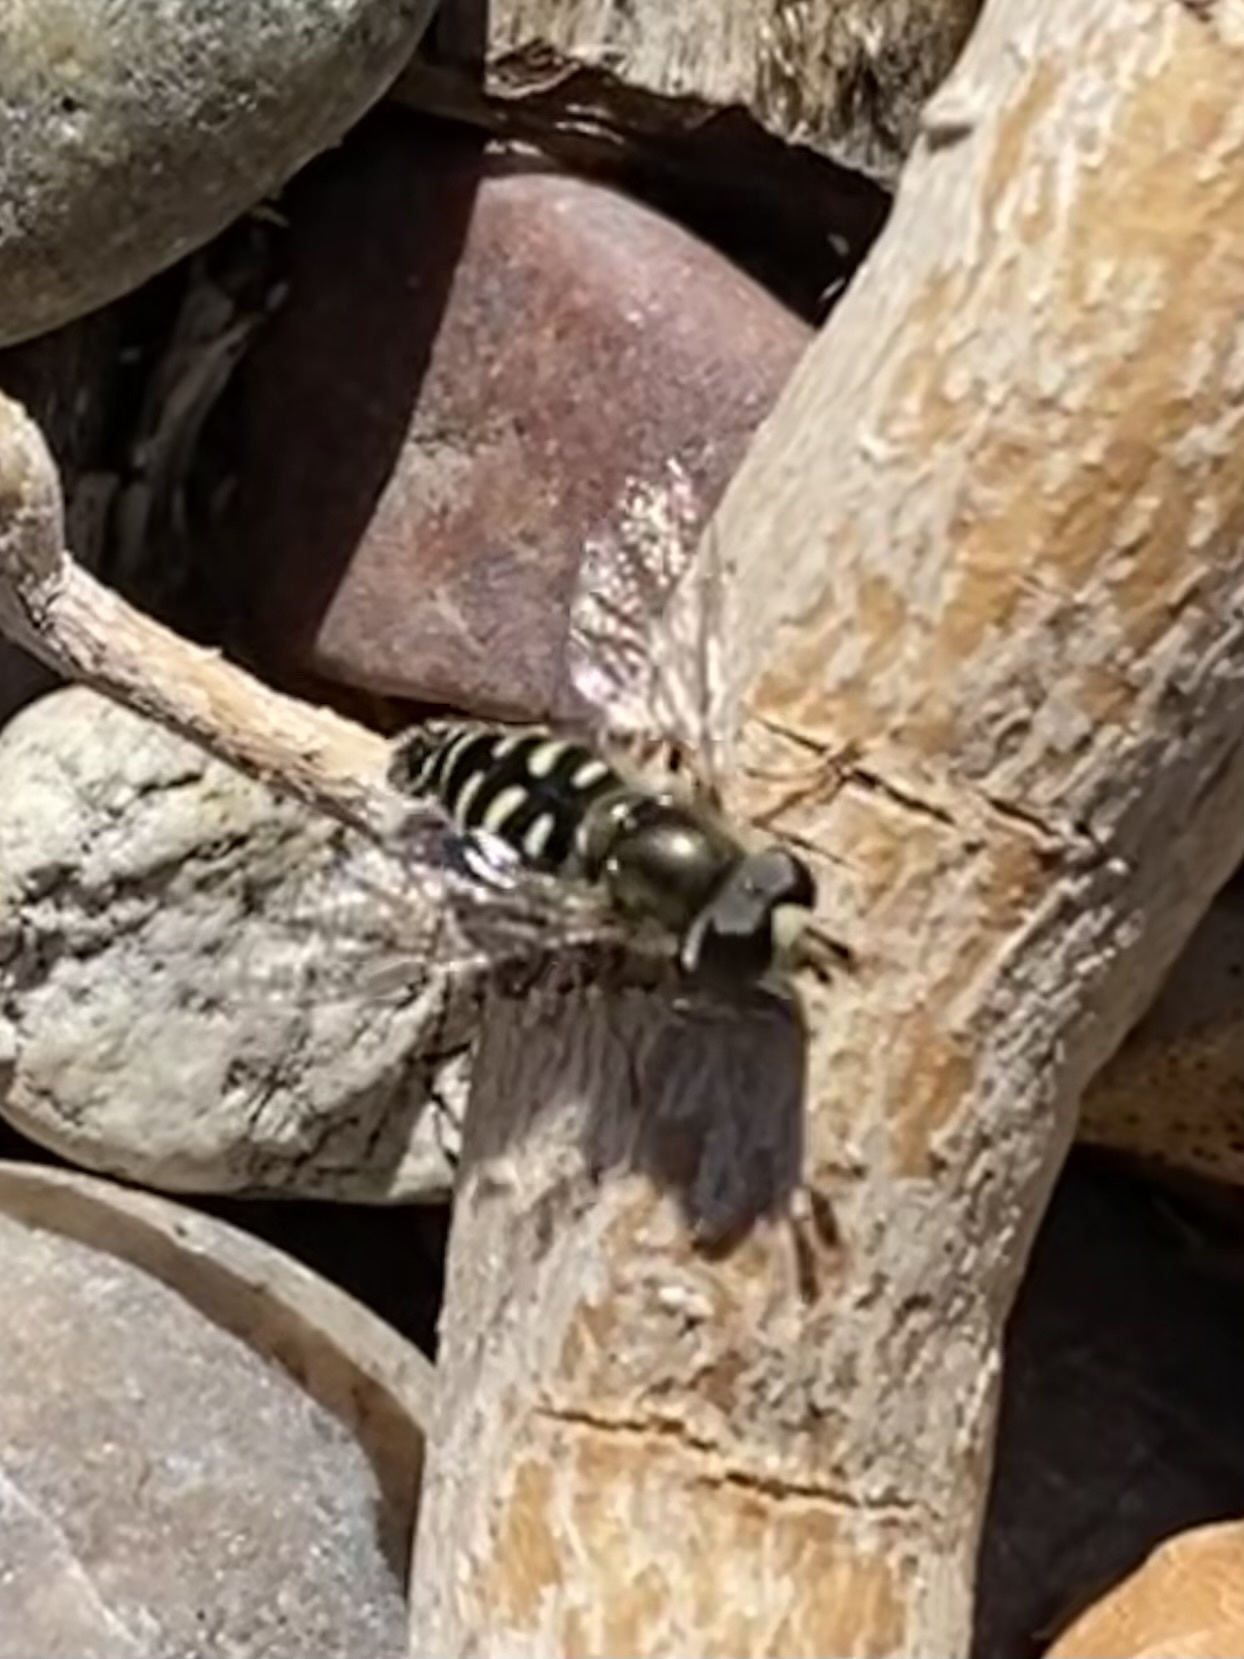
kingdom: Animalia
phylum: Arthropoda
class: Insecta
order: Diptera
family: Syrphidae
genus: Eupeodes
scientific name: Eupeodes volucris
